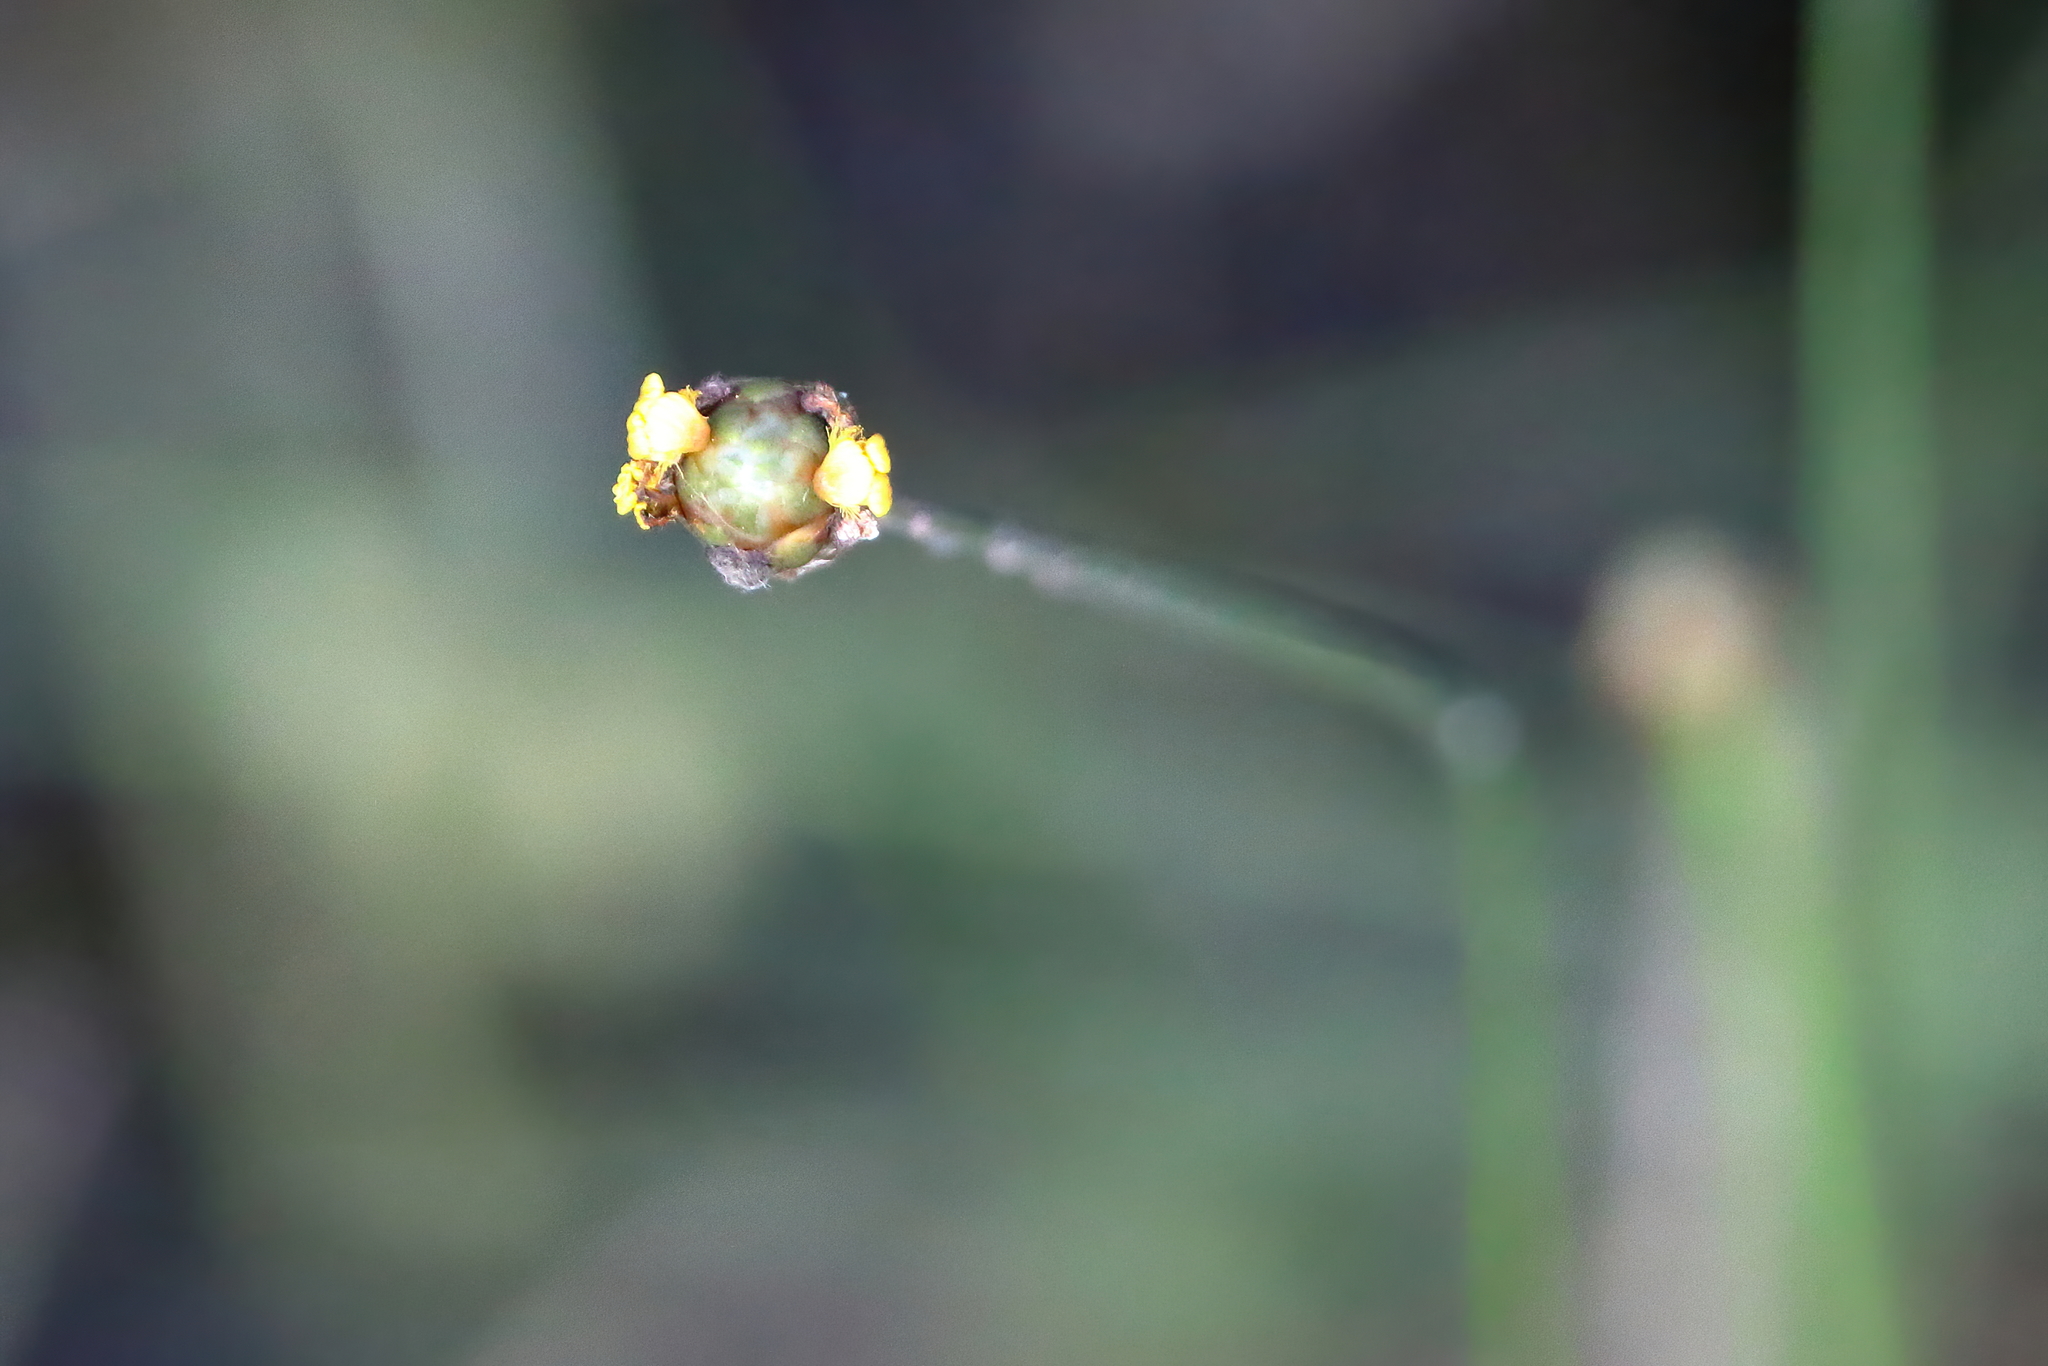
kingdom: Plantae
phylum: Tracheophyta
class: Liliopsida
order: Poales
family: Xyridaceae
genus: Xyris
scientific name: Xyris jupicai
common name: Richard's yelloweyed grass
